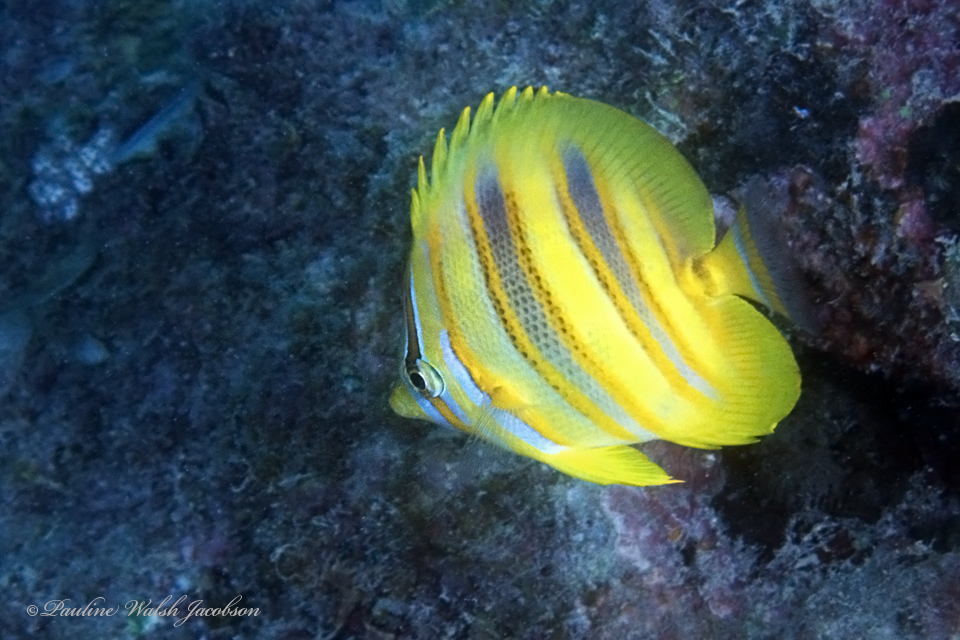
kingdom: Animalia
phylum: Chordata
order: Perciformes
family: Chaetodontidae
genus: Chaetodon
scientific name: Chaetodon rainfordi
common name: Rainford's butterflyfish
